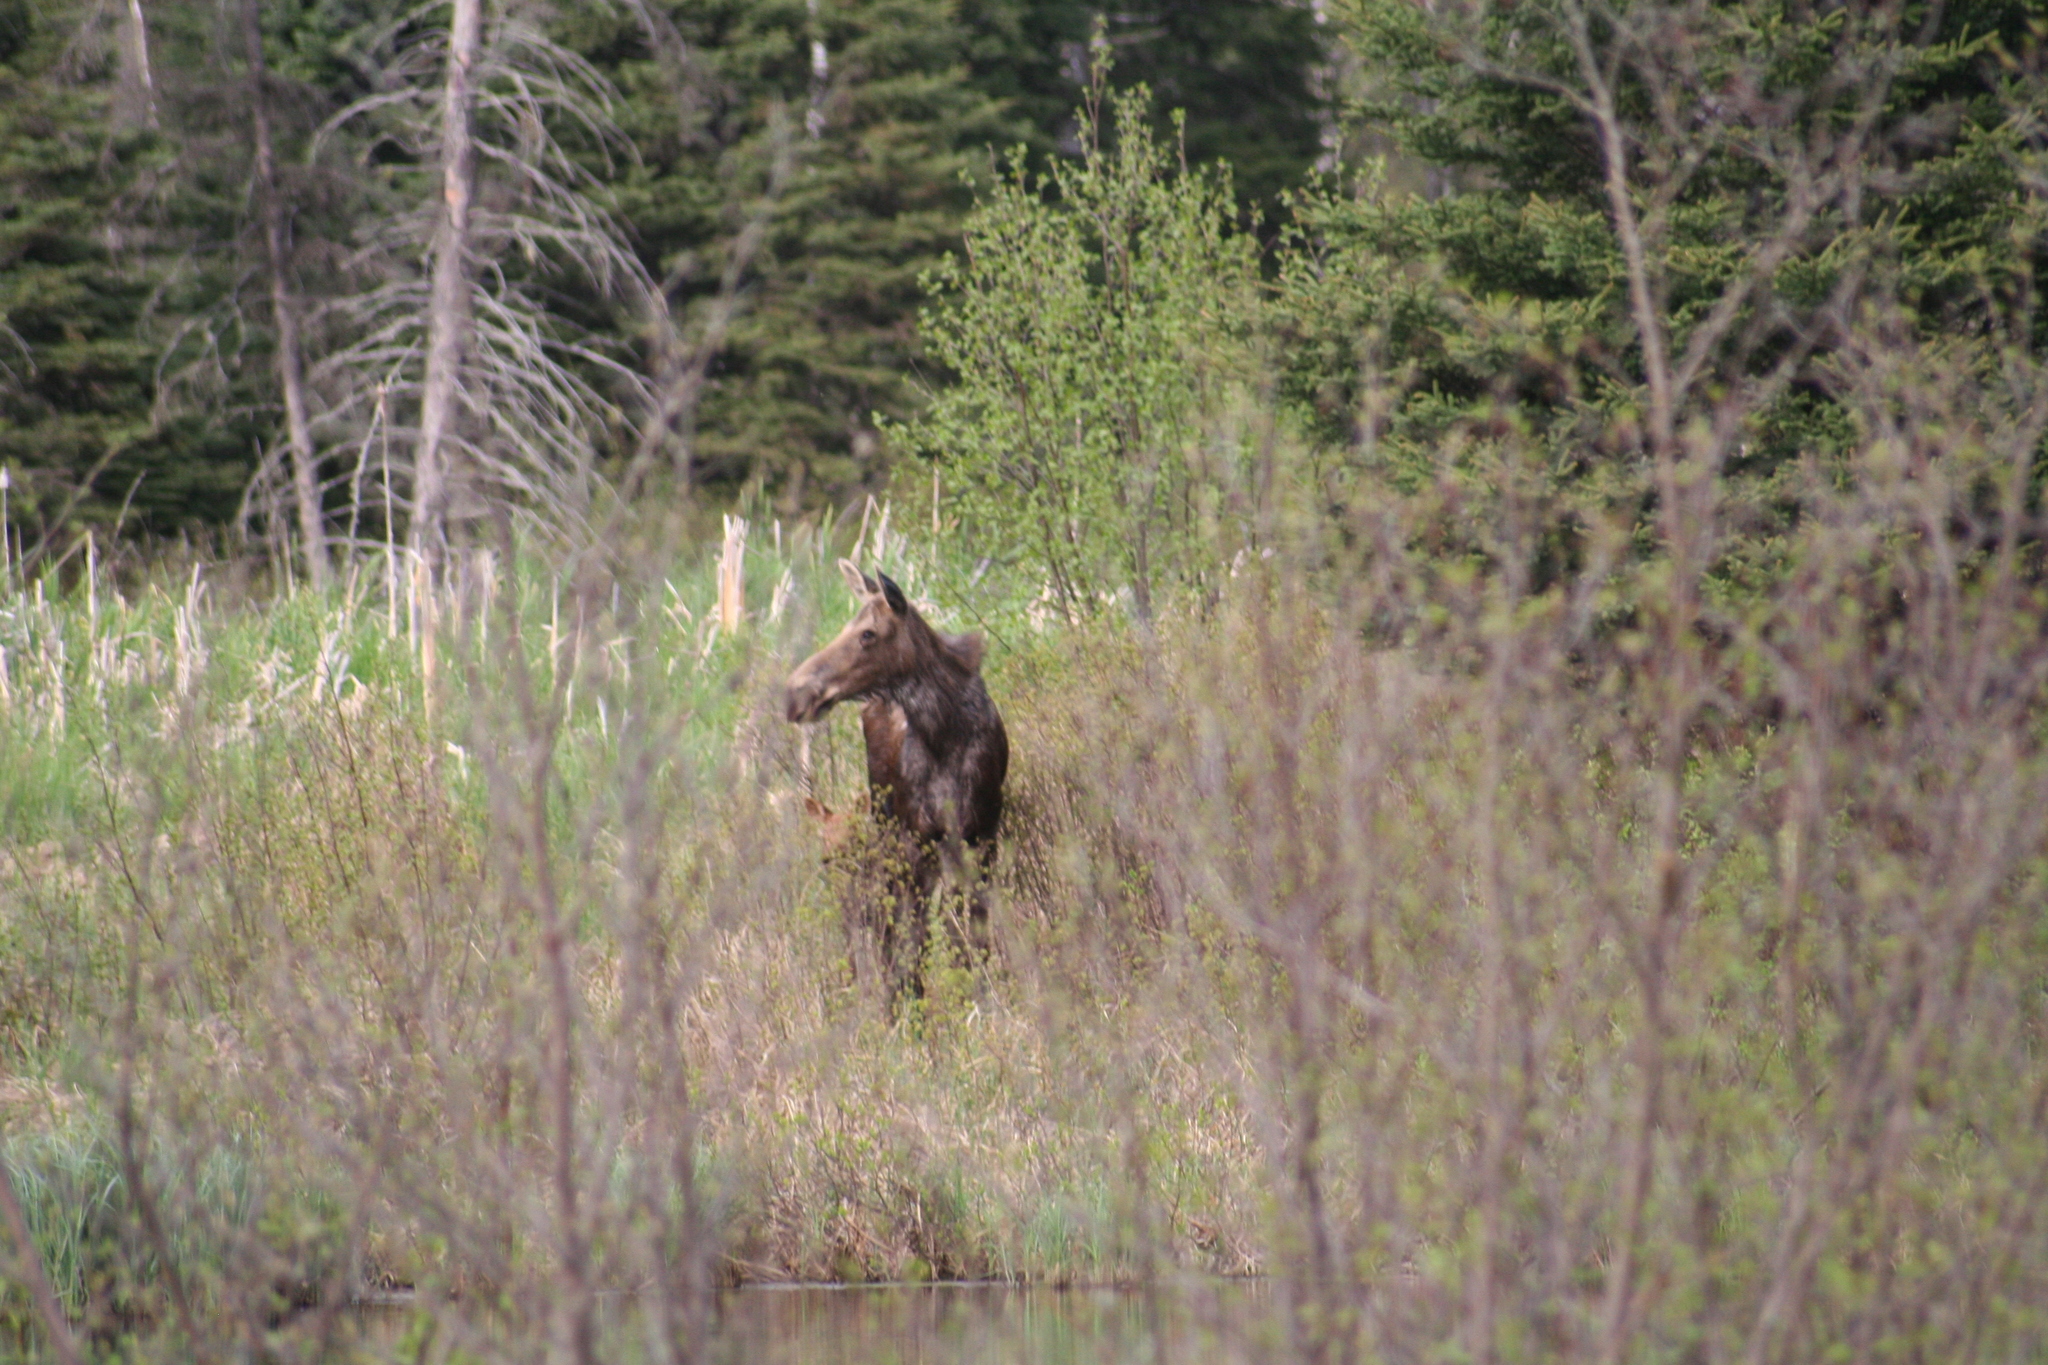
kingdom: Animalia
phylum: Chordata
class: Mammalia
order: Artiodactyla
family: Cervidae
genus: Alces
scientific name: Alces alces
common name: Moose
